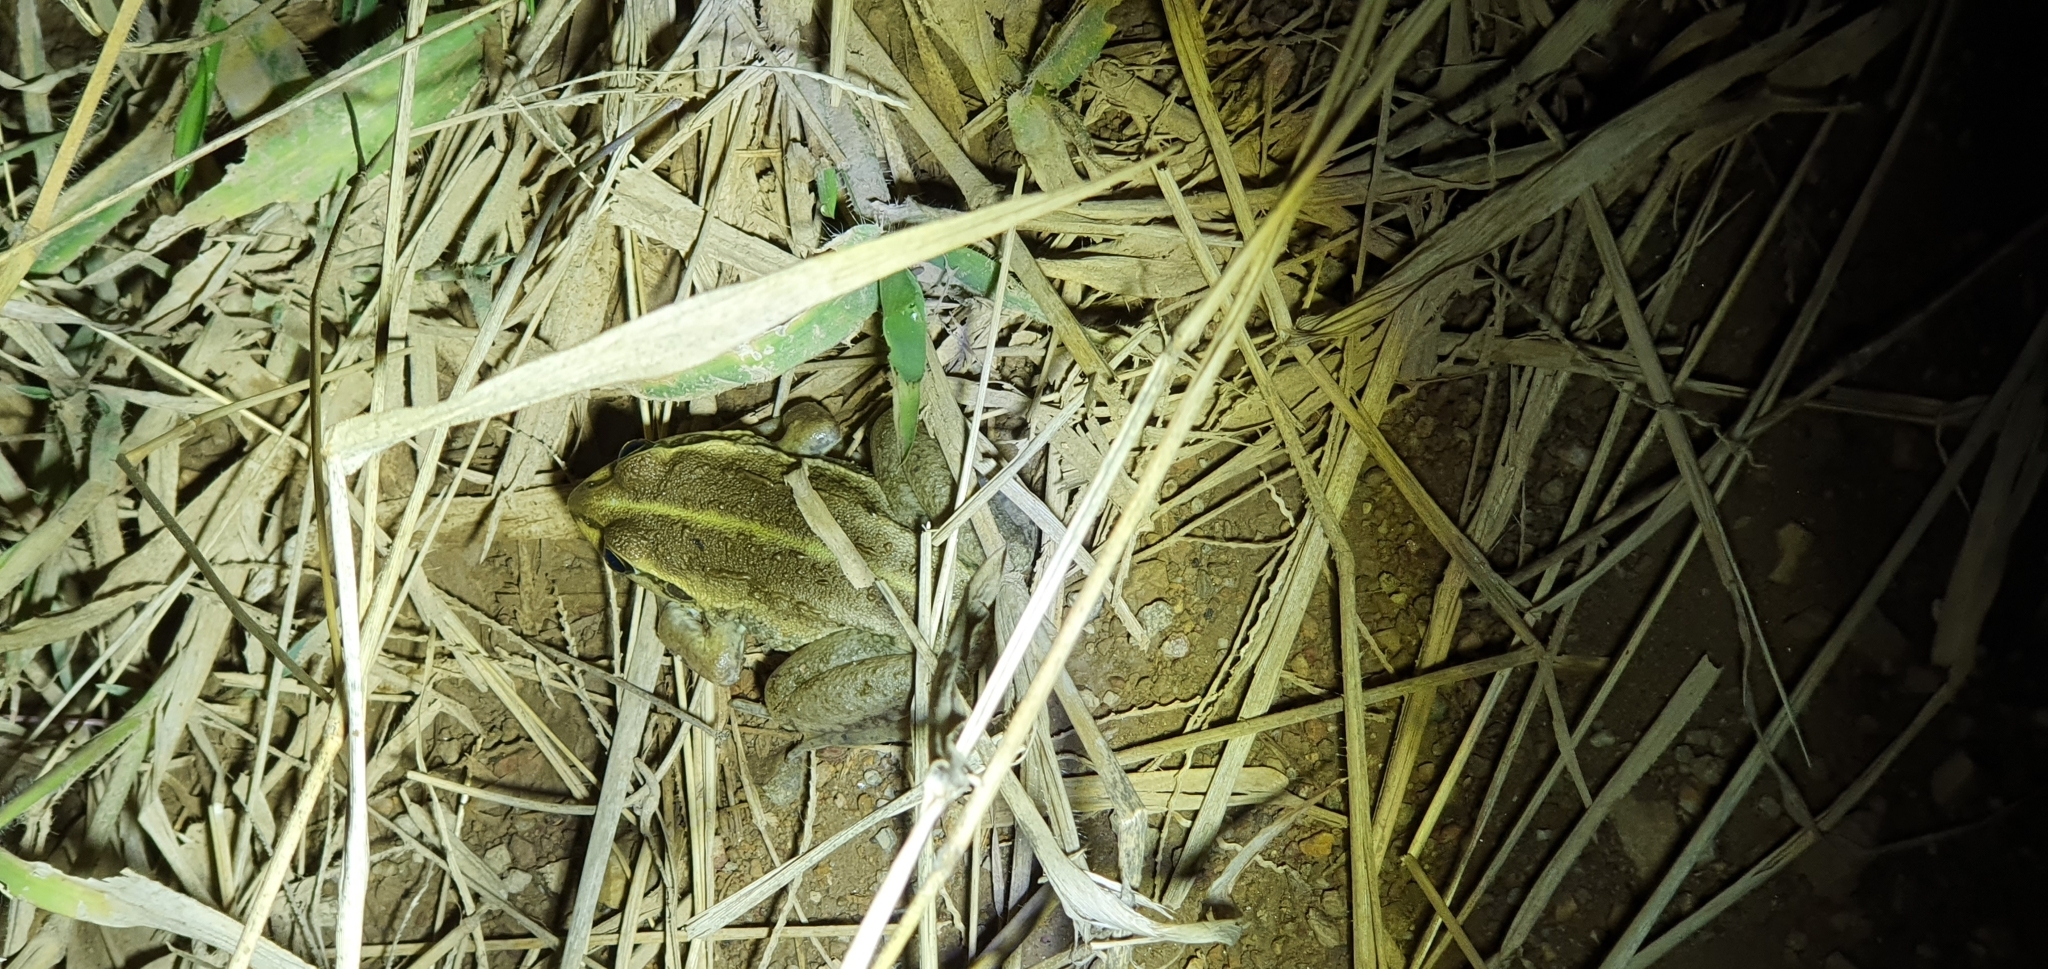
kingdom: Animalia
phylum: Chordata
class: Amphibia
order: Anura
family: Pelodryadidae
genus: Ranoidea
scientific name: Ranoidea alboguttata
